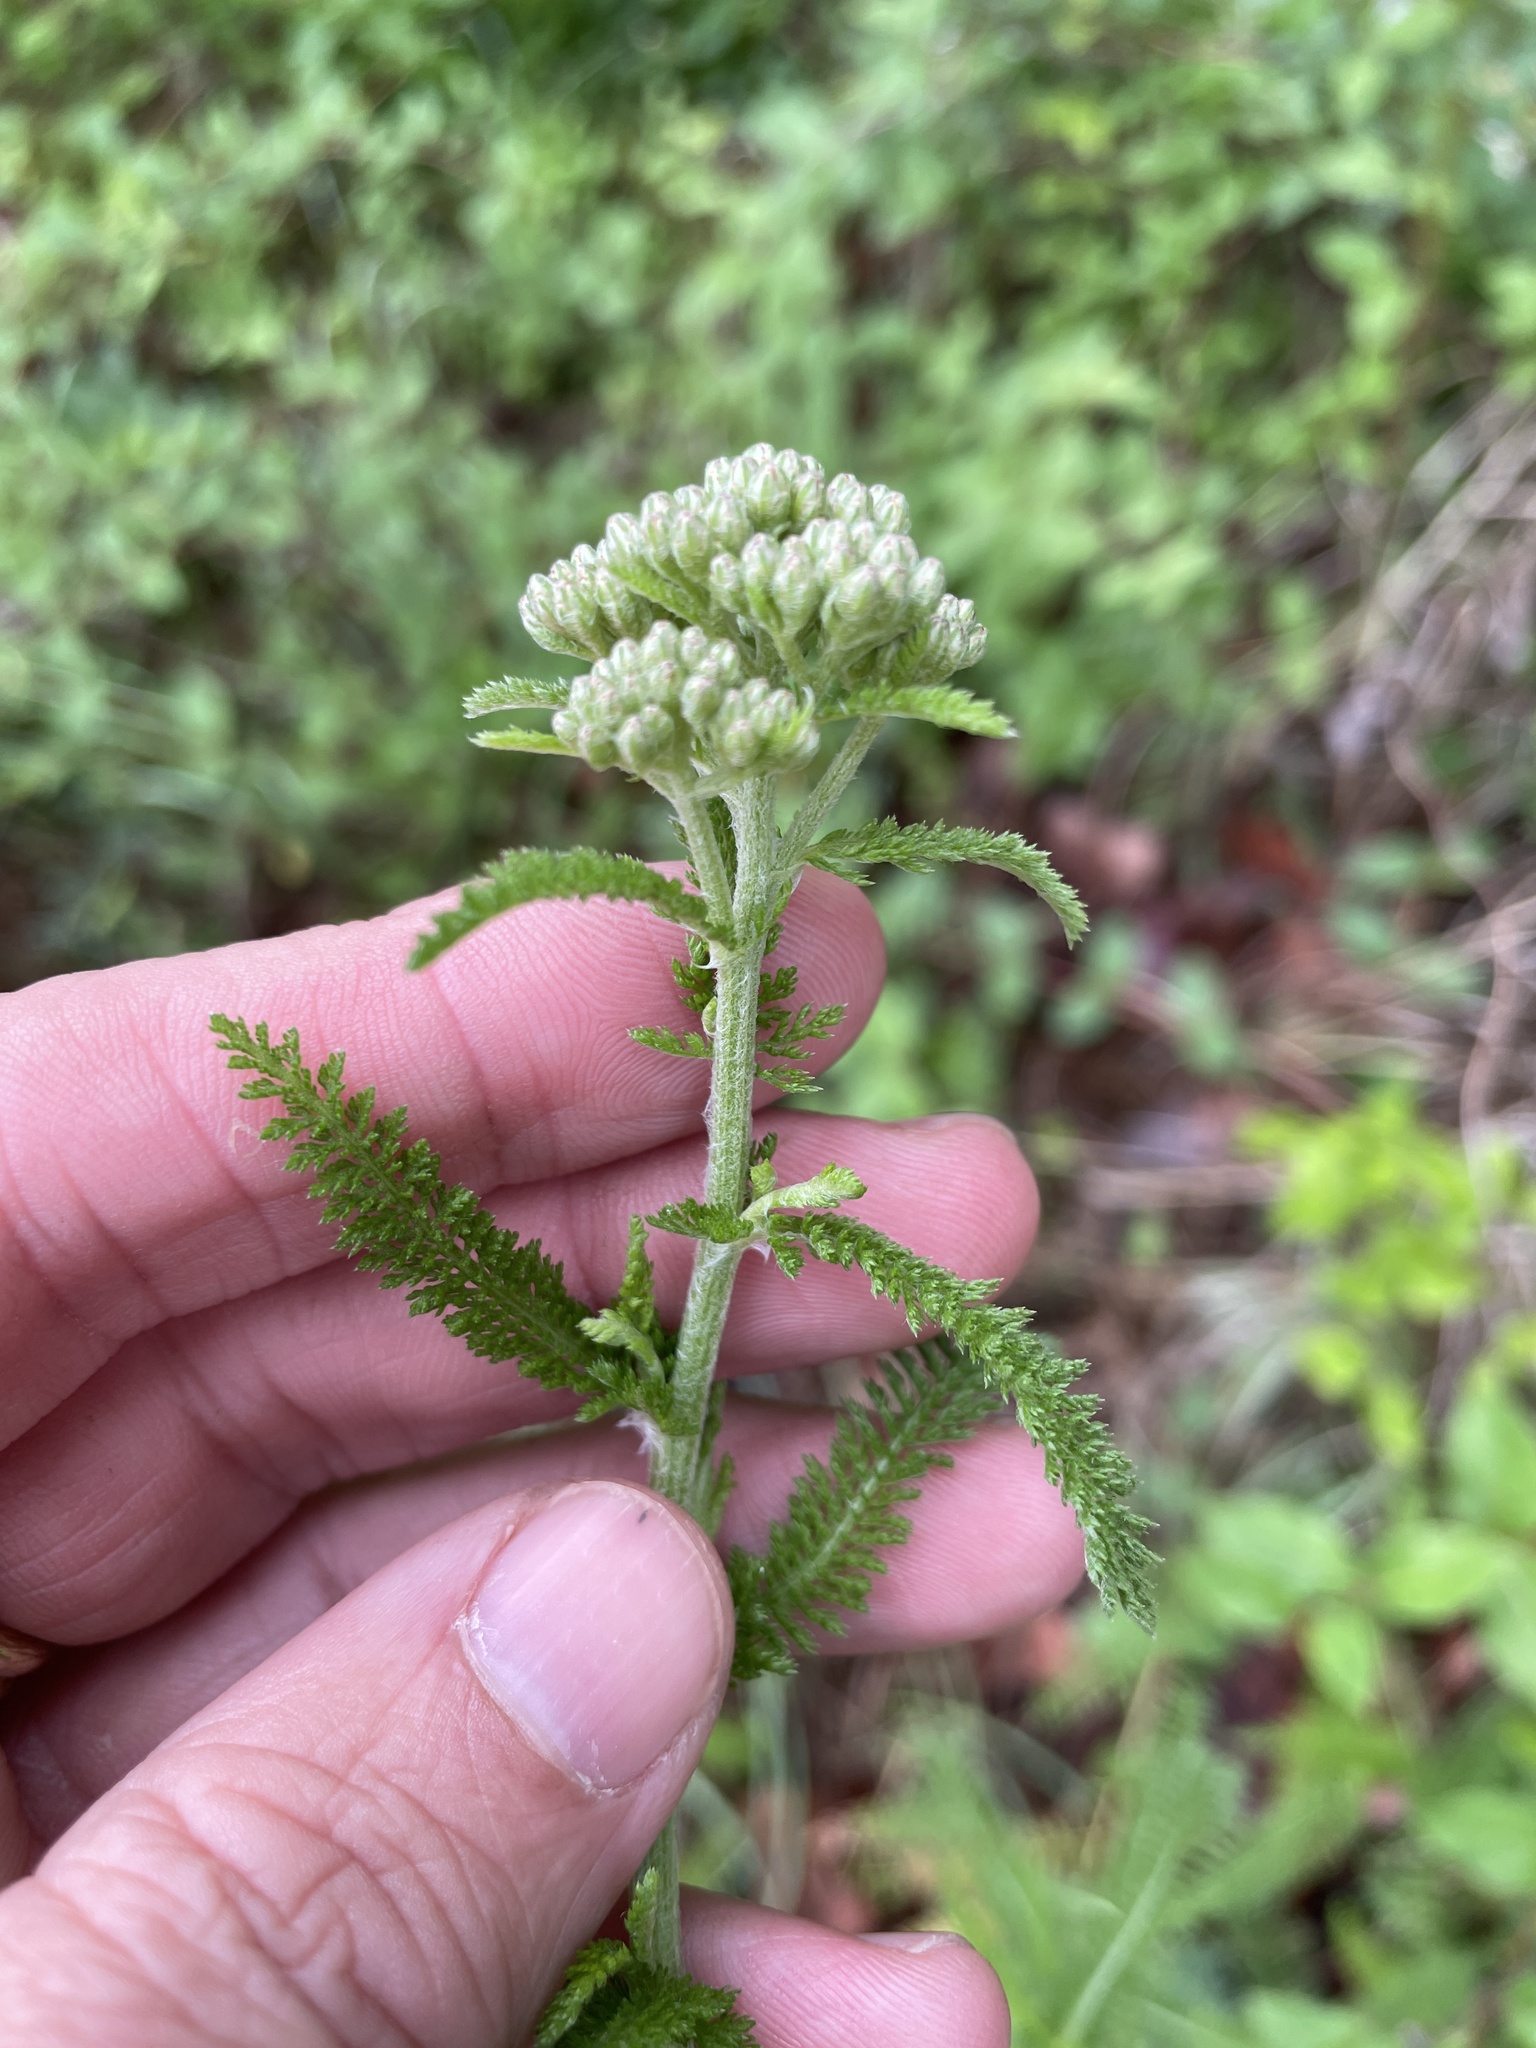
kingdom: Plantae
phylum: Tracheophyta
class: Magnoliopsida
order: Asterales
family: Asteraceae
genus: Achillea
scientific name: Achillea millefolium
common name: Yarrow
